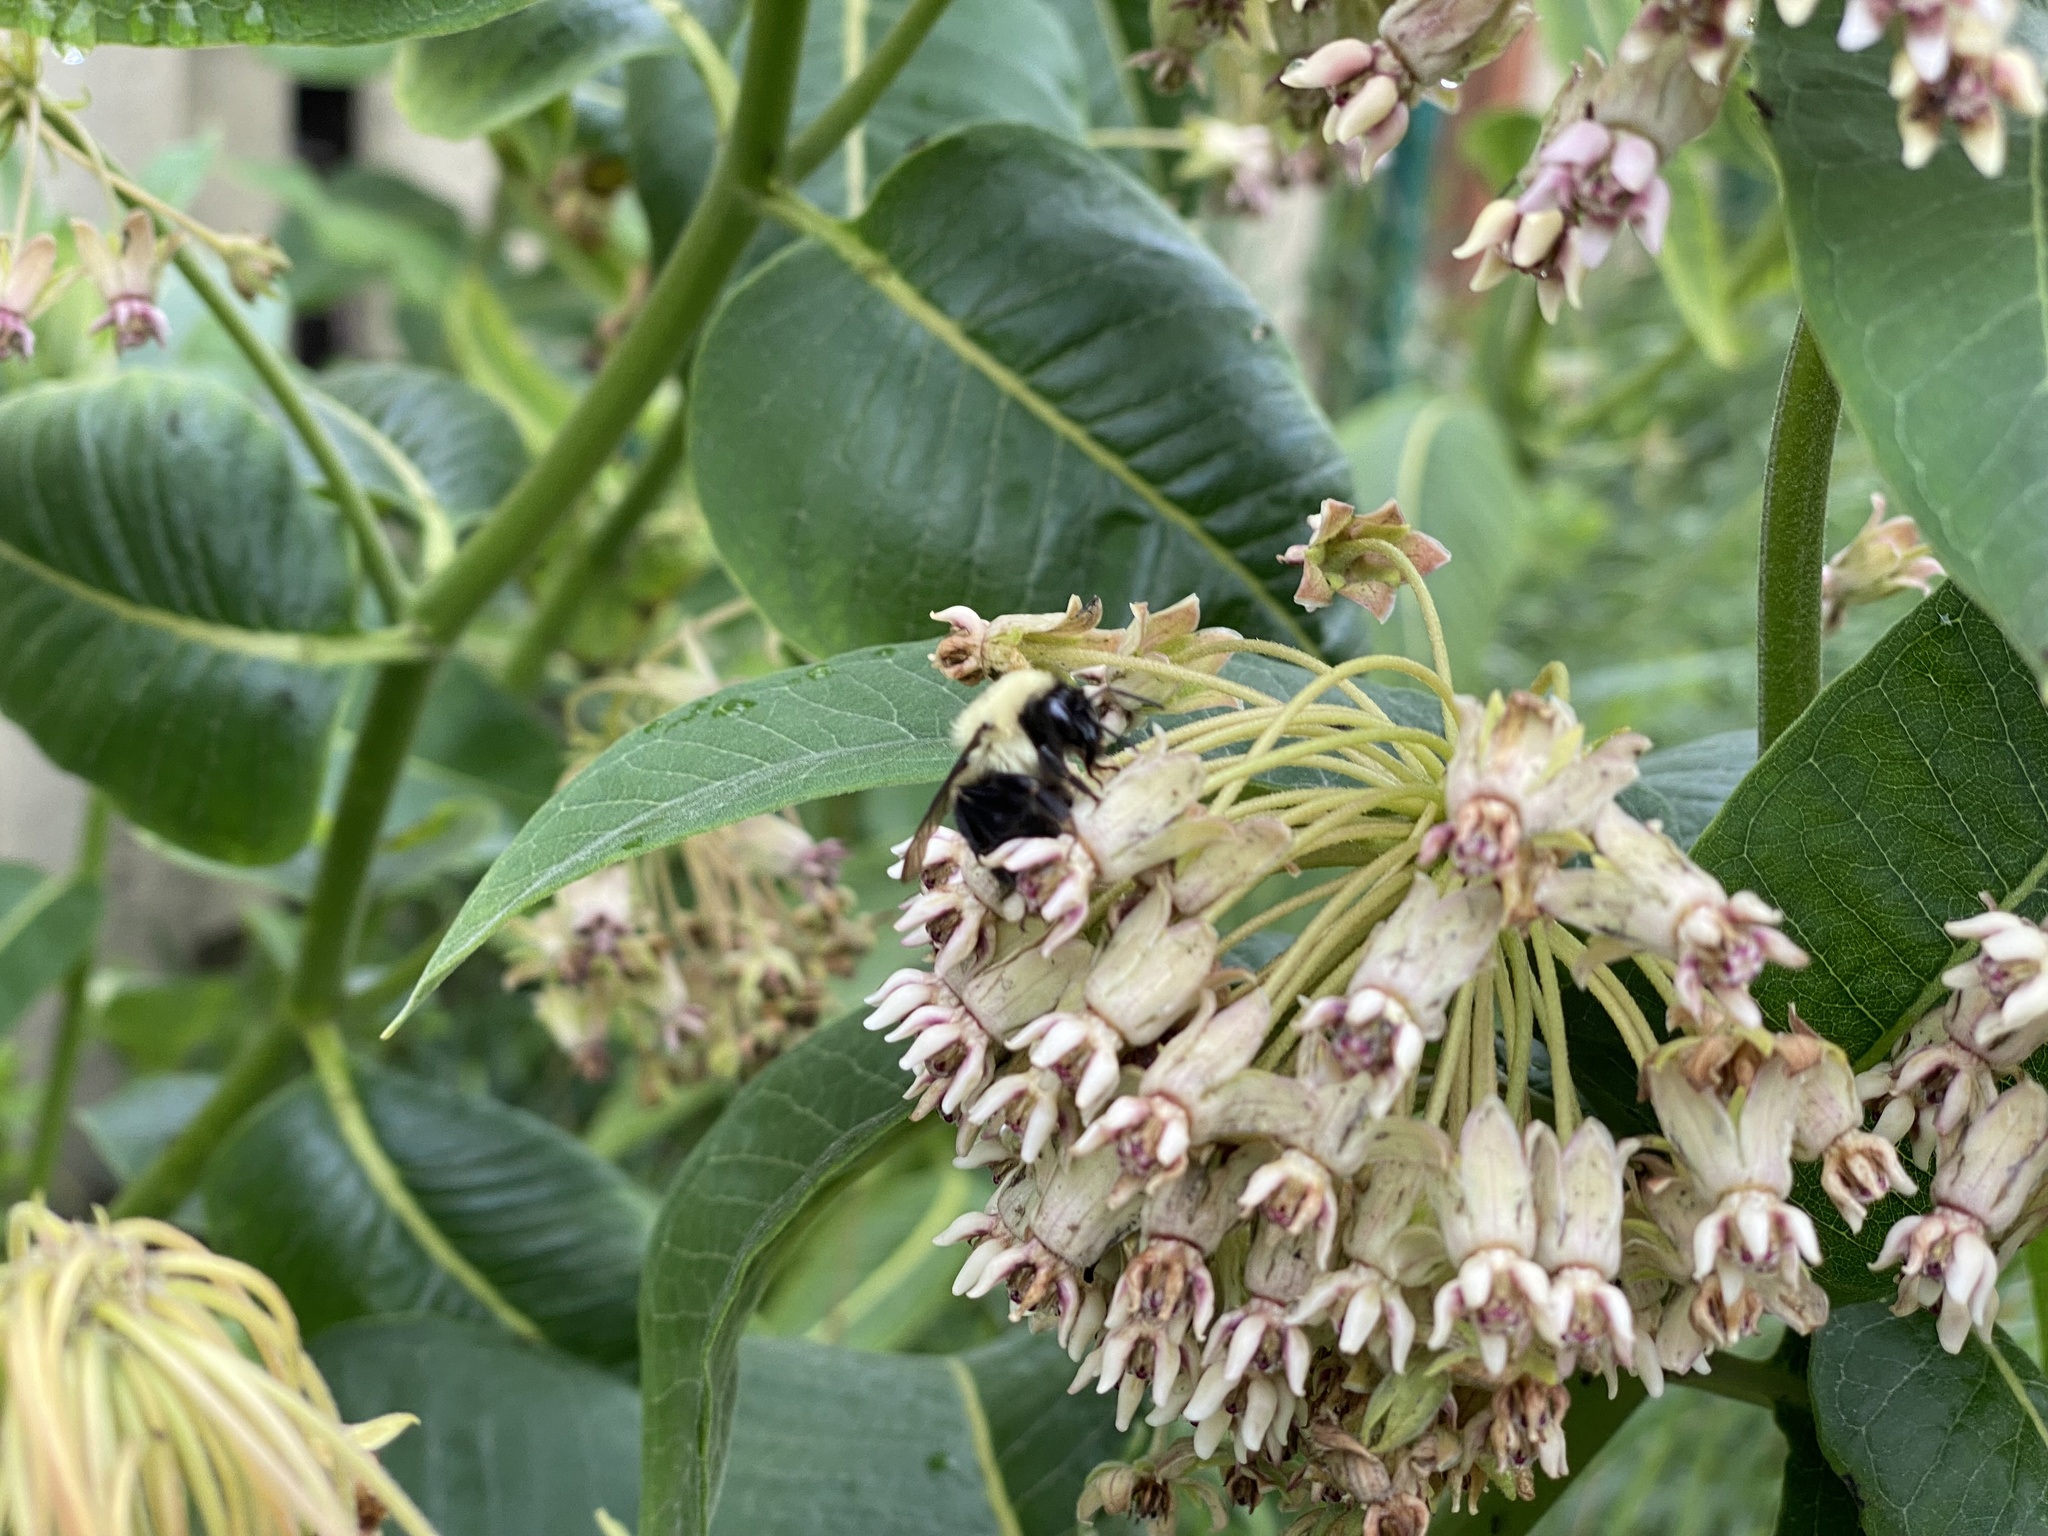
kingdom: Animalia
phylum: Arthropoda
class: Insecta
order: Hymenoptera
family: Apidae
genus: Bombus
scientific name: Bombus griseocollis
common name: Brown-belted bumble bee
